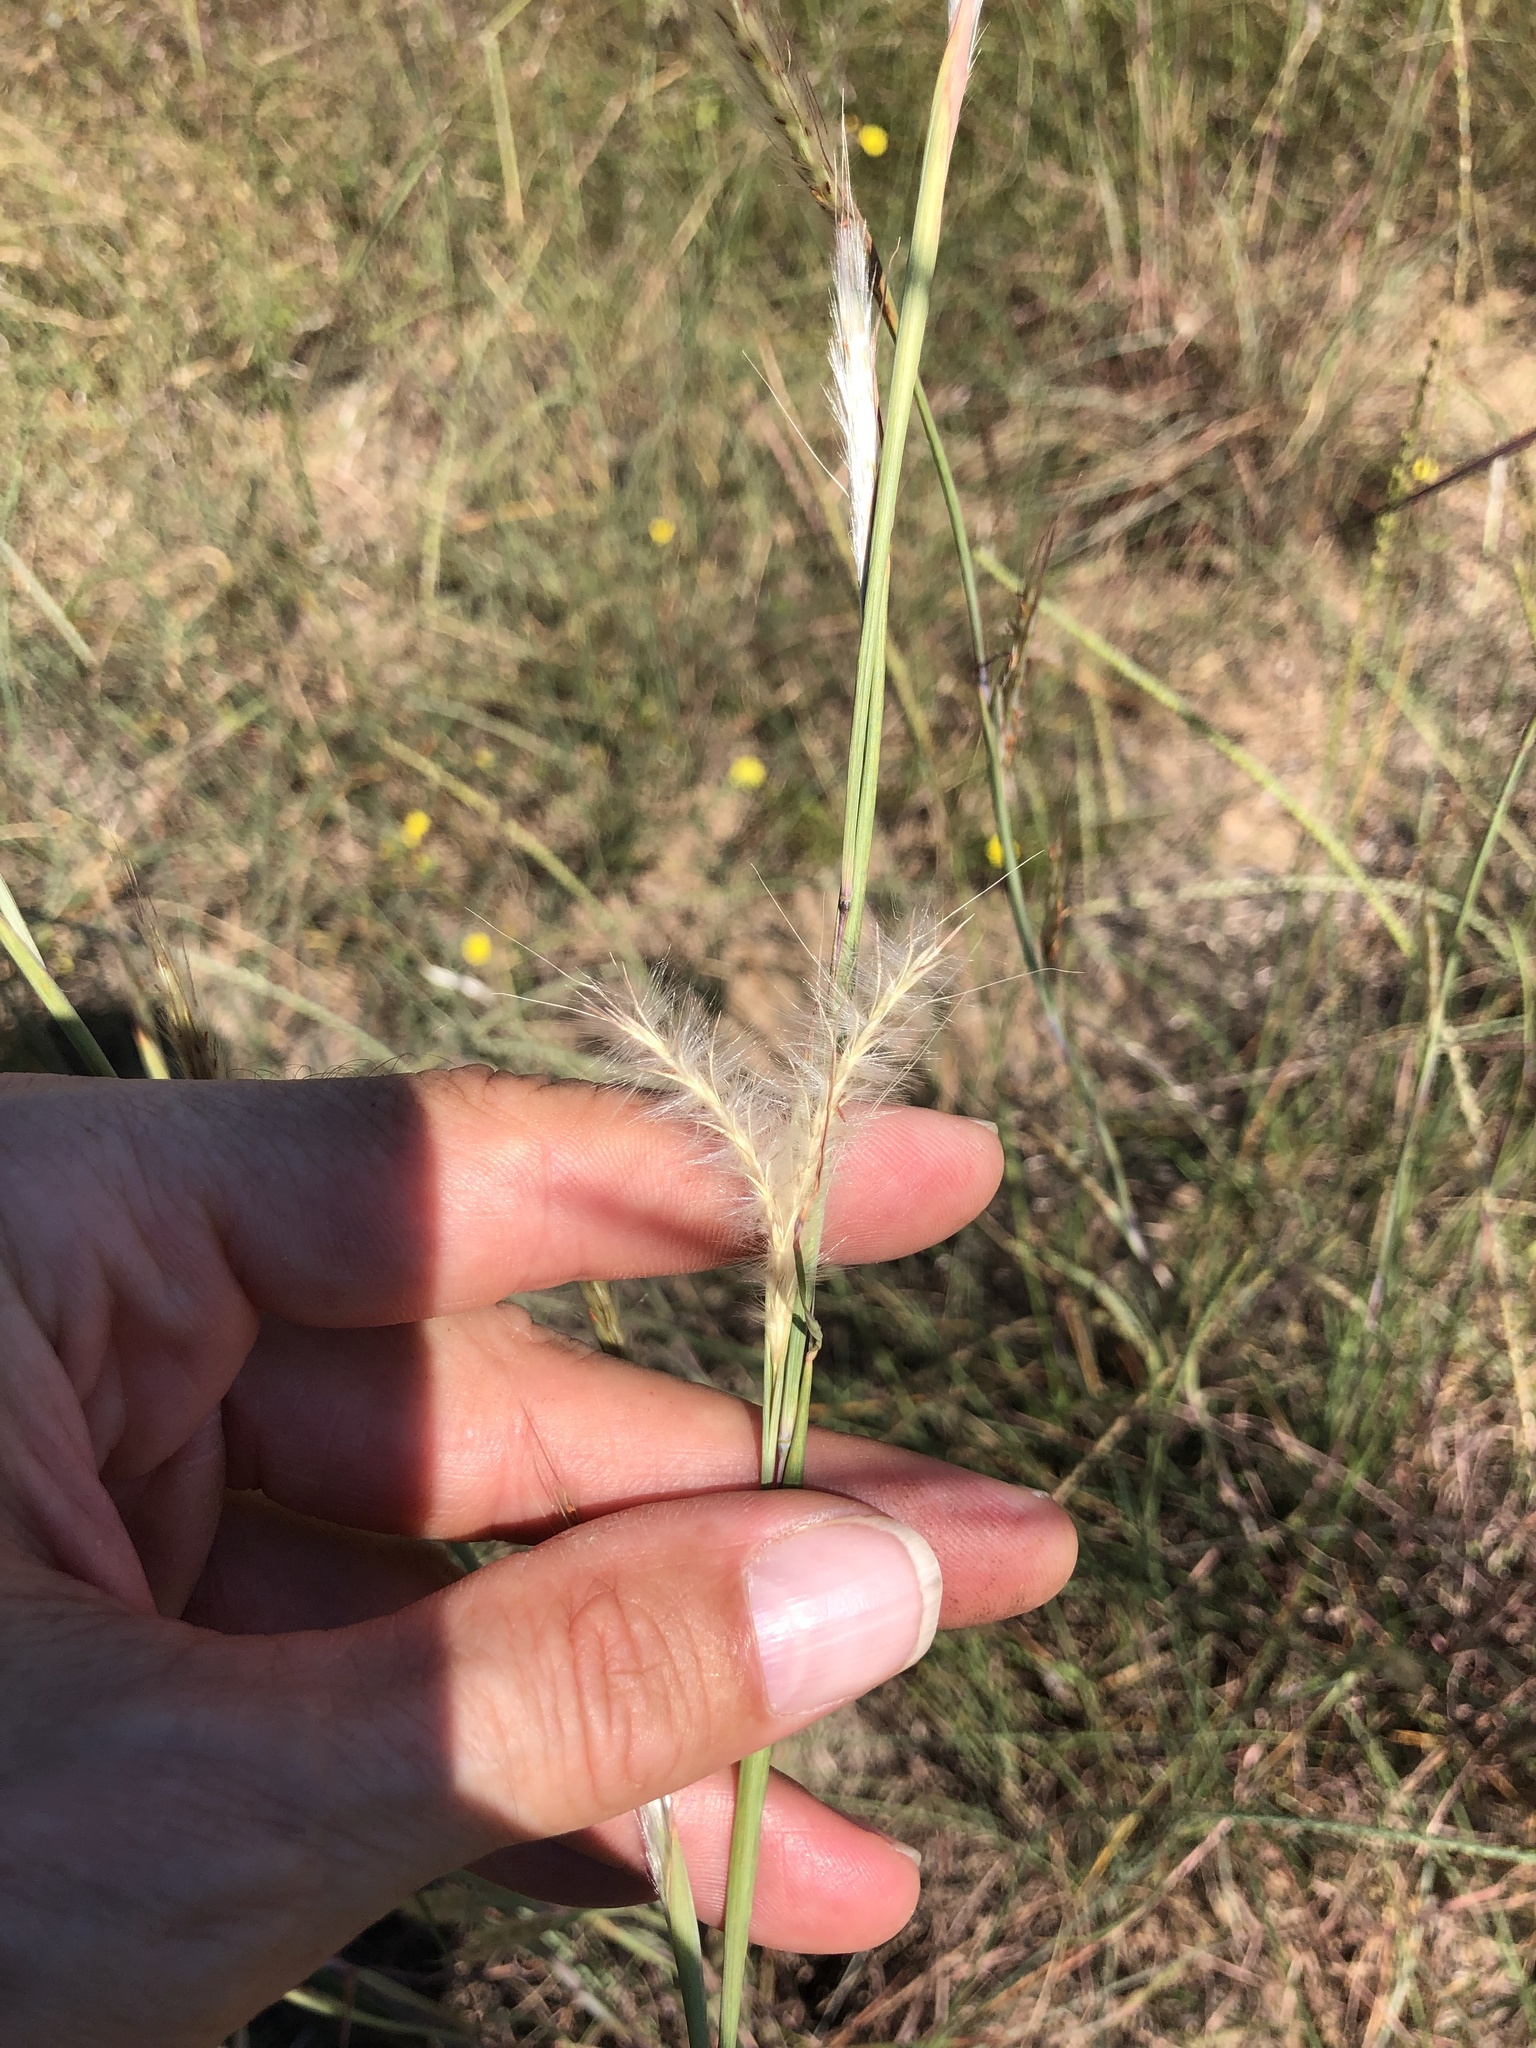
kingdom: Plantae
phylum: Tracheophyta
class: Liliopsida
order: Poales
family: Poaceae
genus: Andropogon
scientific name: Andropogon ternarius
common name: Split bluestem
